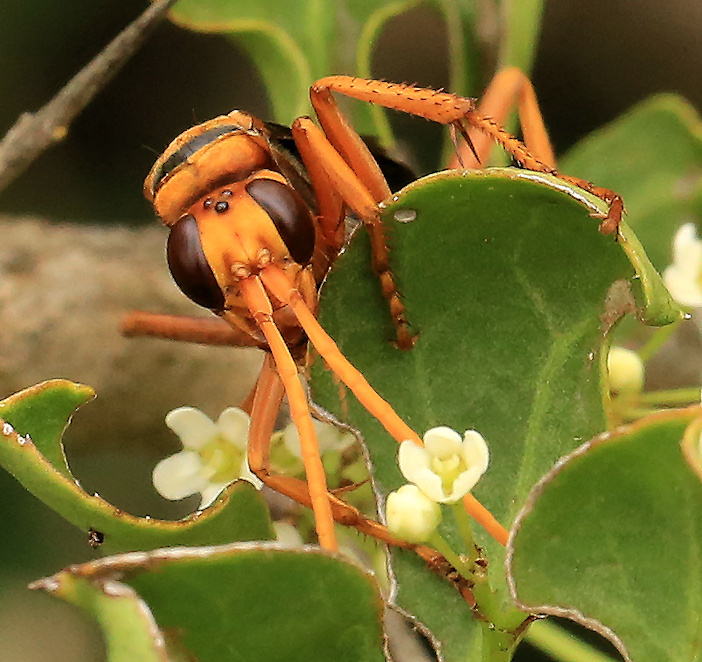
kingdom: Animalia
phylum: Arthropoda
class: Insecta
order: Hymenoptera
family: Pompilidae
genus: Hemipepsis
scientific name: Hemipepsis tamisieri
